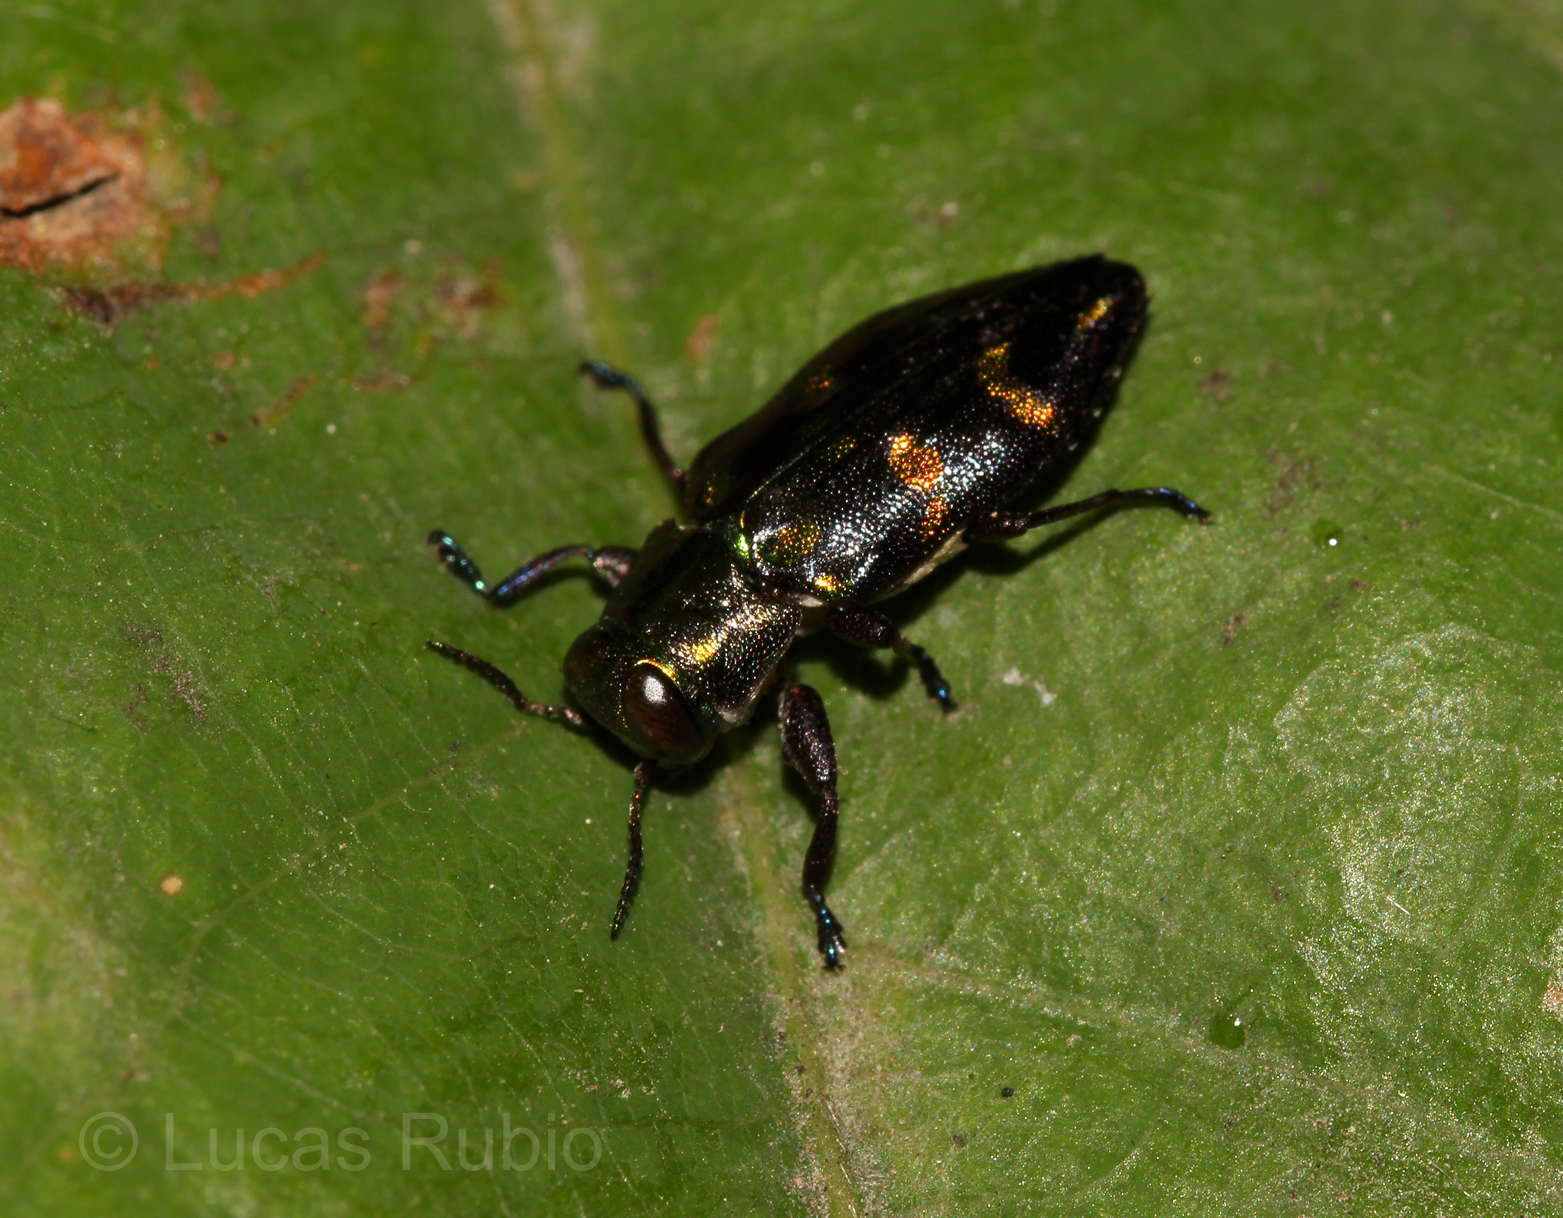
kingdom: Animalia
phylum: Arthropoda
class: Insecta
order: Coleoptera
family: Buprestidae
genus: Chrysobothris
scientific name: Chrysobothris richteri
